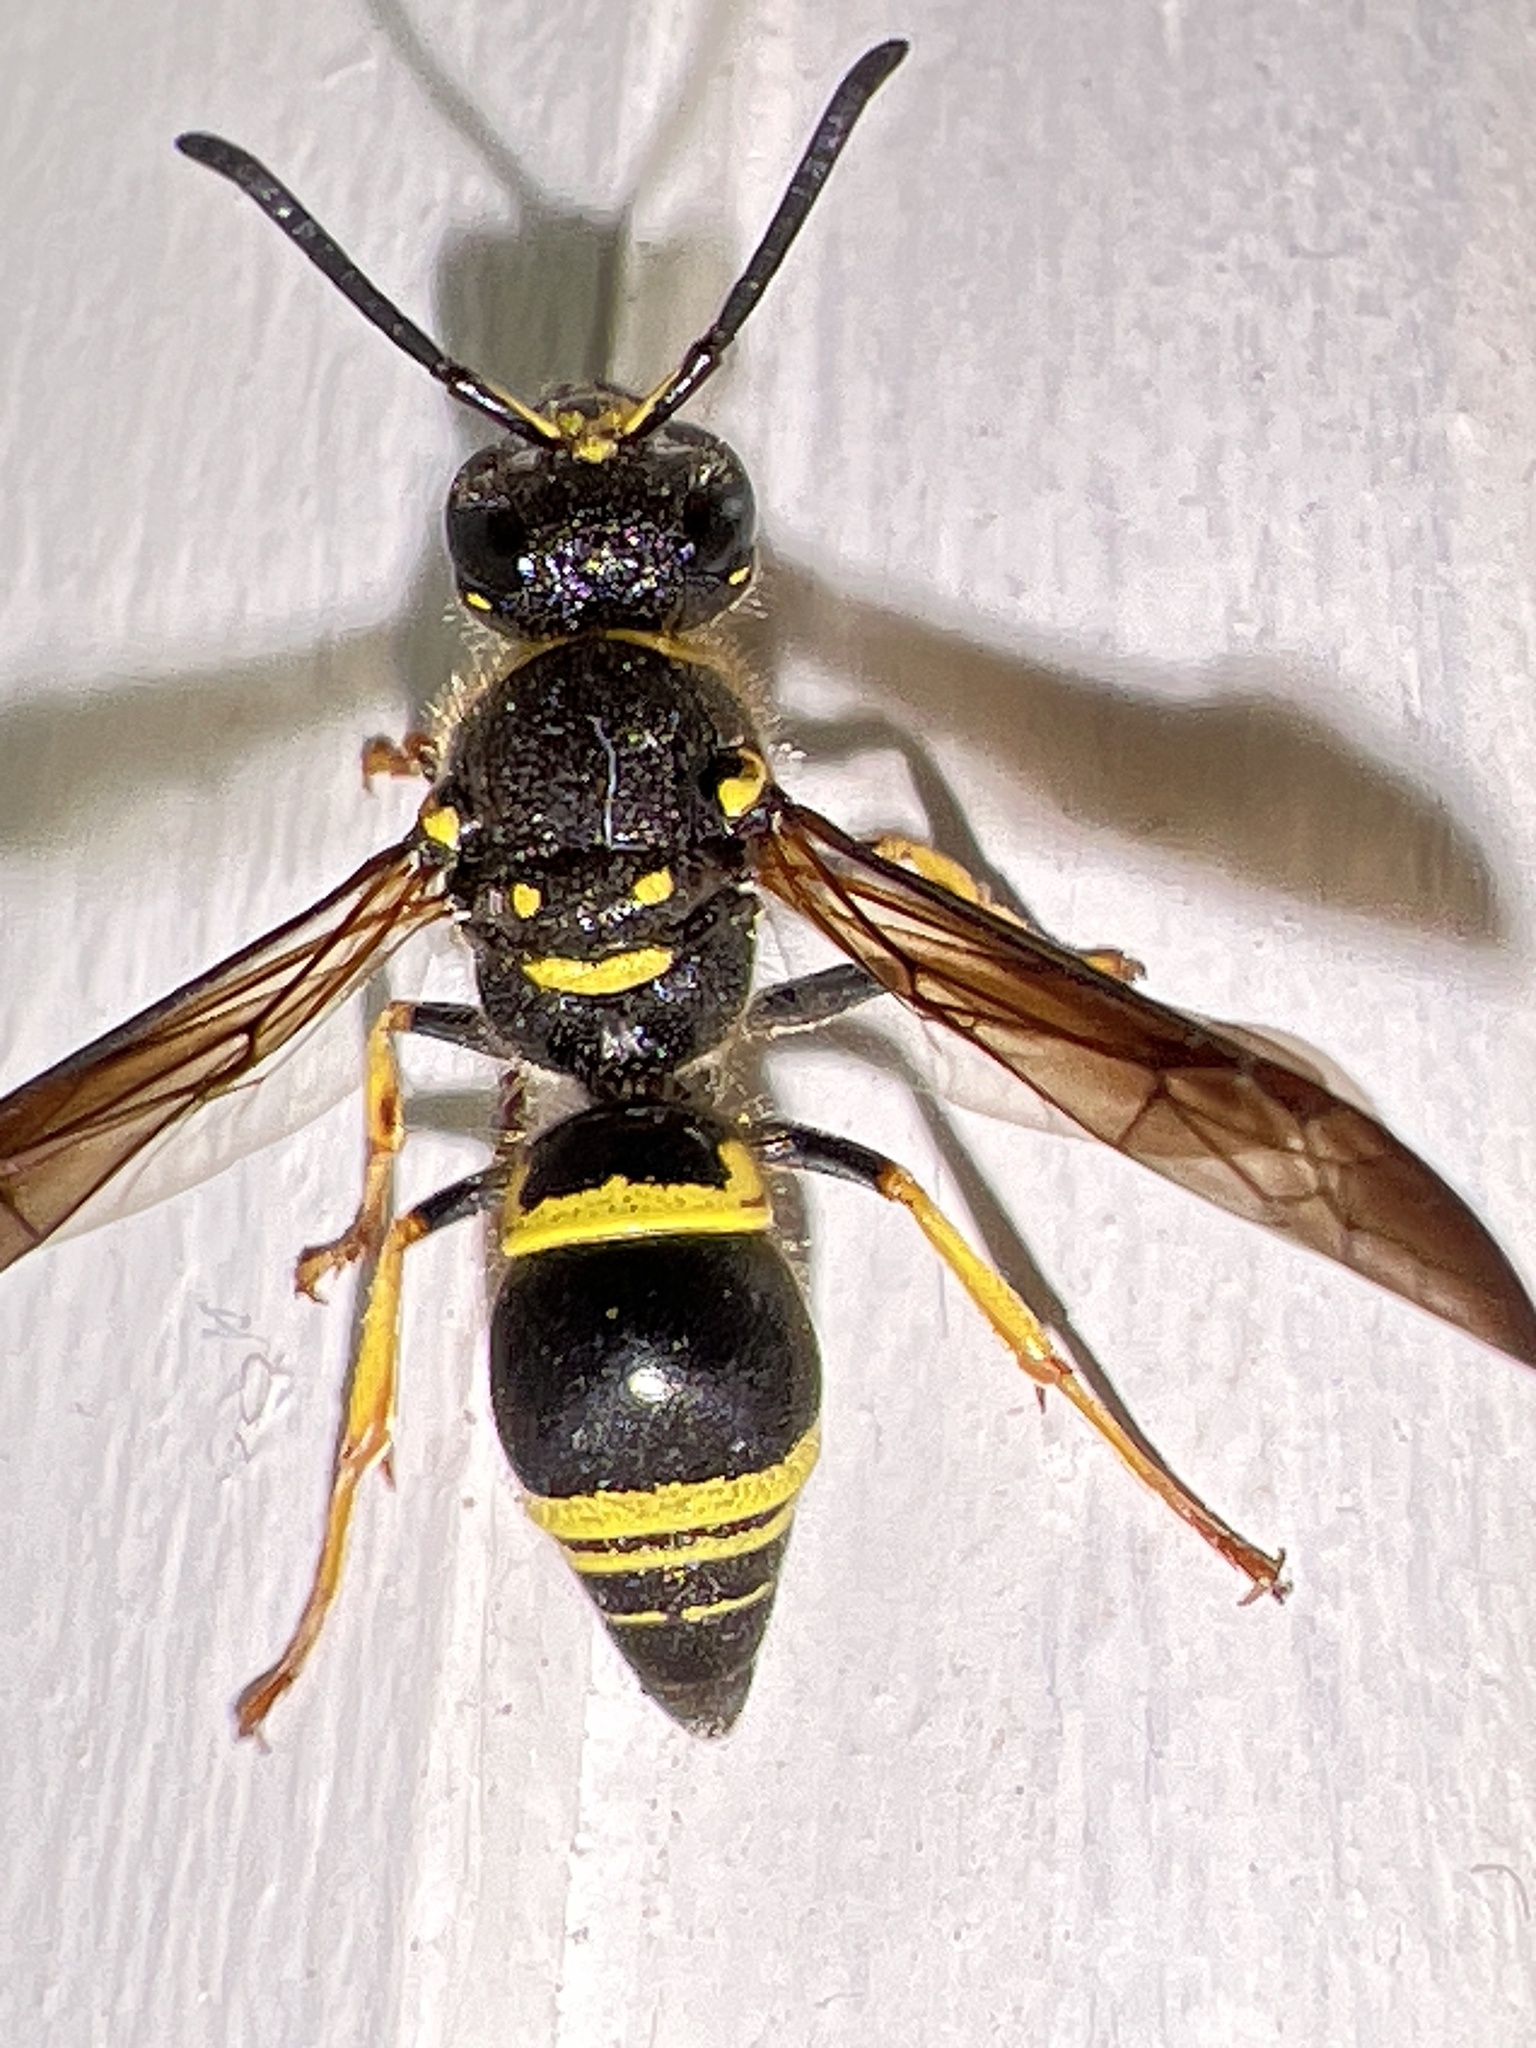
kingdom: Animalia
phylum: Arthropoda
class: Insecta
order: Hymenoptera
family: Vespidae
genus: Ancistrocerus
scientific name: Ancistrocerus campestris
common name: Smiling mason wasp
